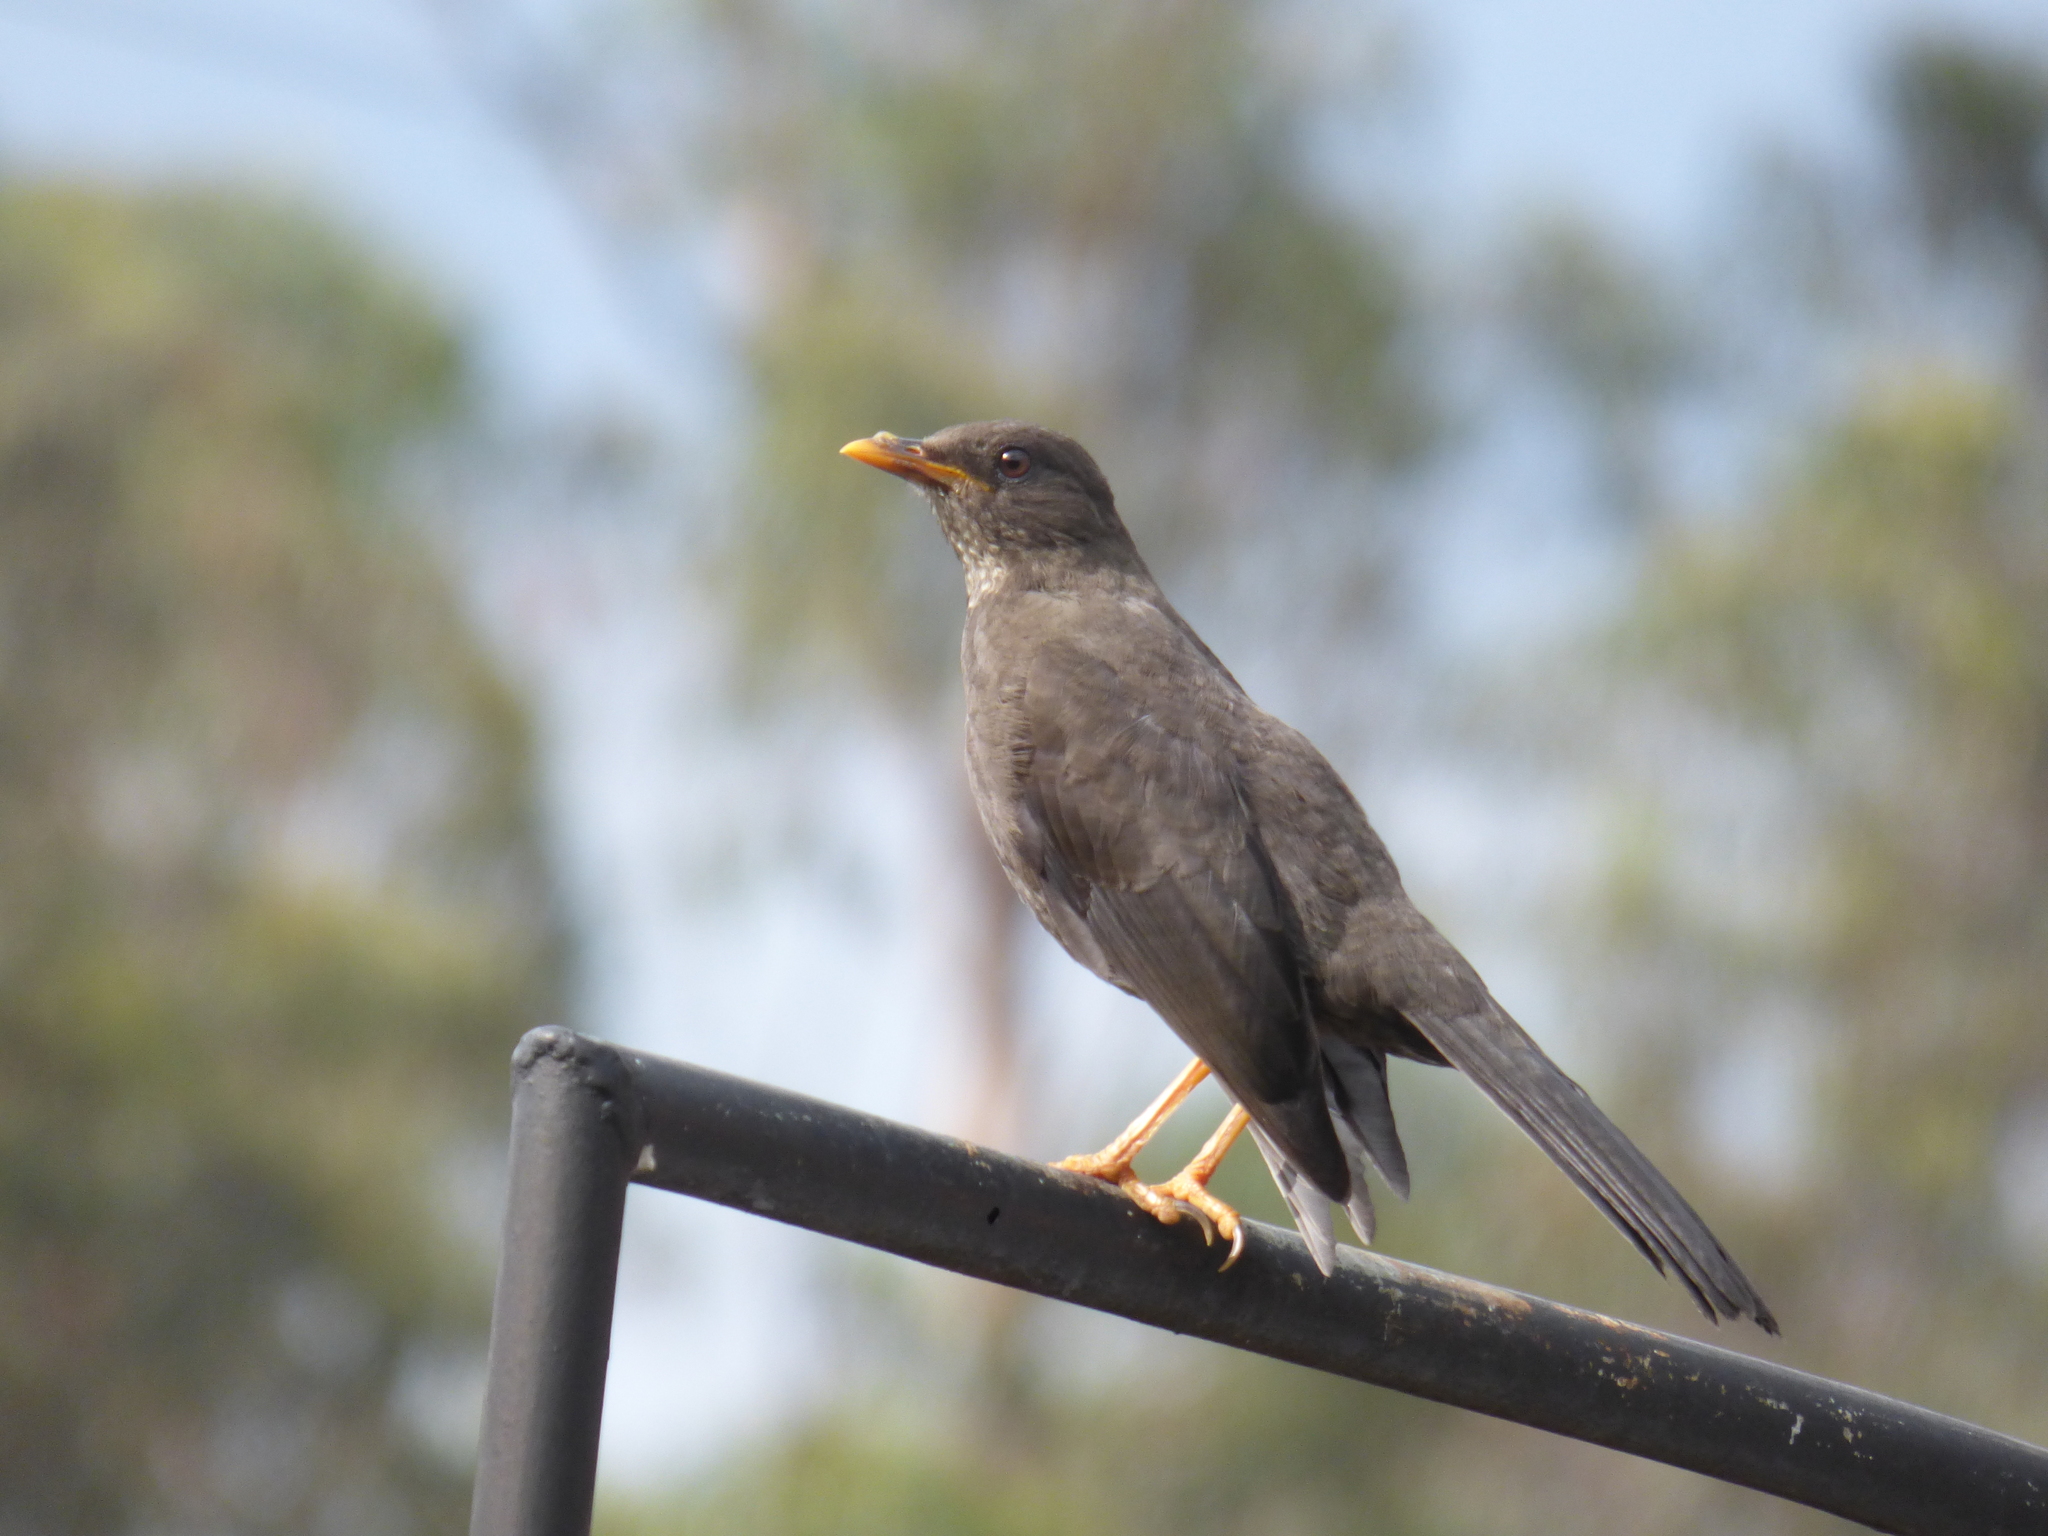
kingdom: Animalia
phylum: Chordata
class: Aves
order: Passeriformes
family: Turdidae
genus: Turdus
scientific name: Turdus fuscater
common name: Great thrush
